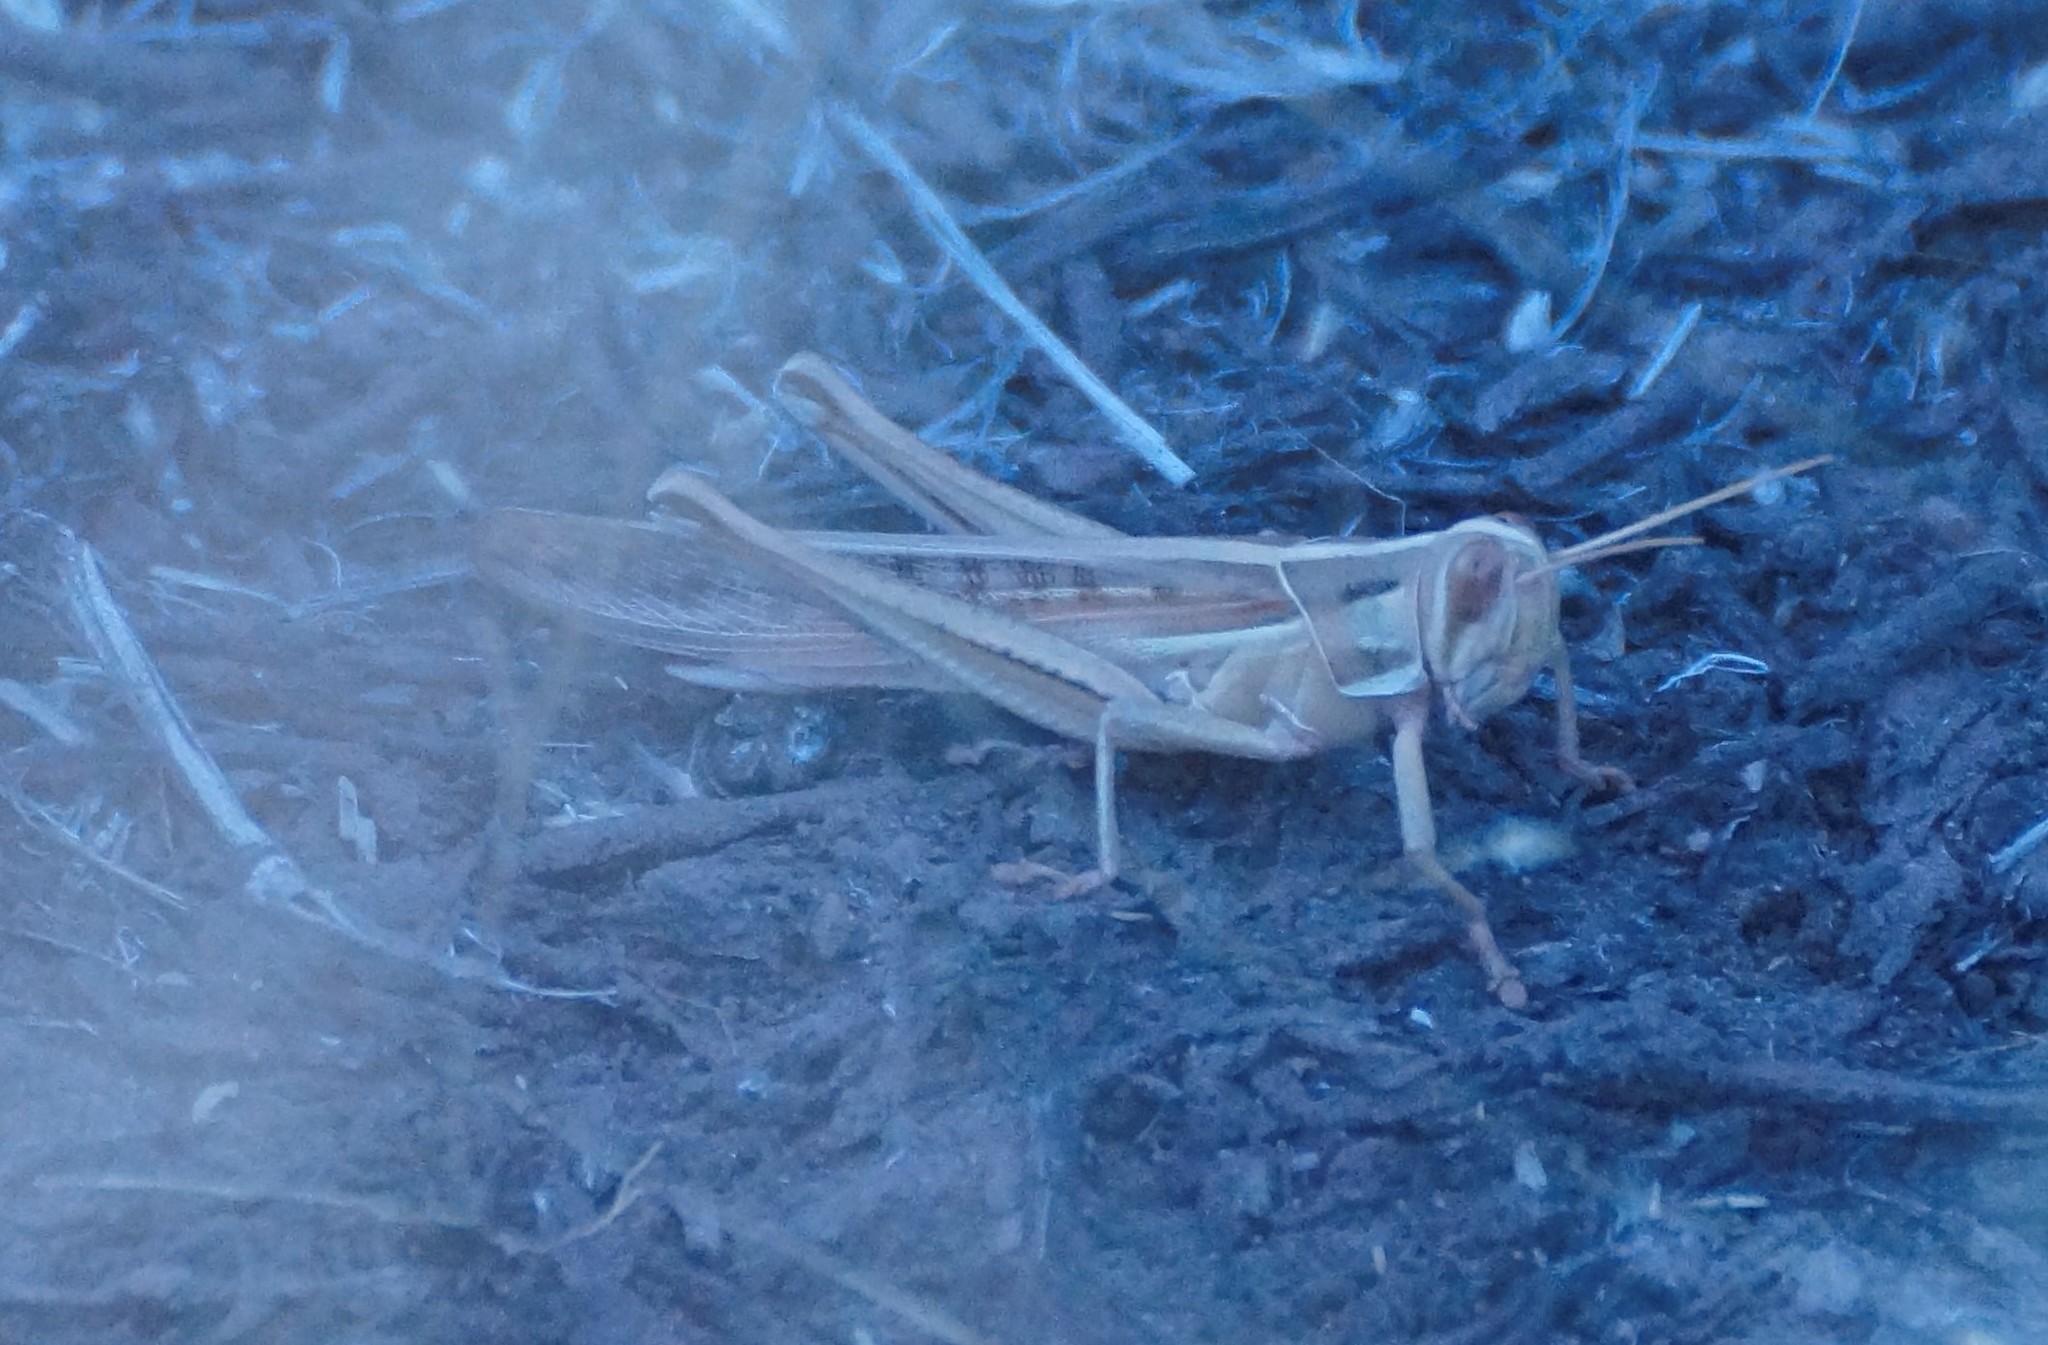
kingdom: Animalia
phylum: Arthropoda
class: Insecta
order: Orthoptera
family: Acrididae
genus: Austracris
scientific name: Austracris guttulosa
